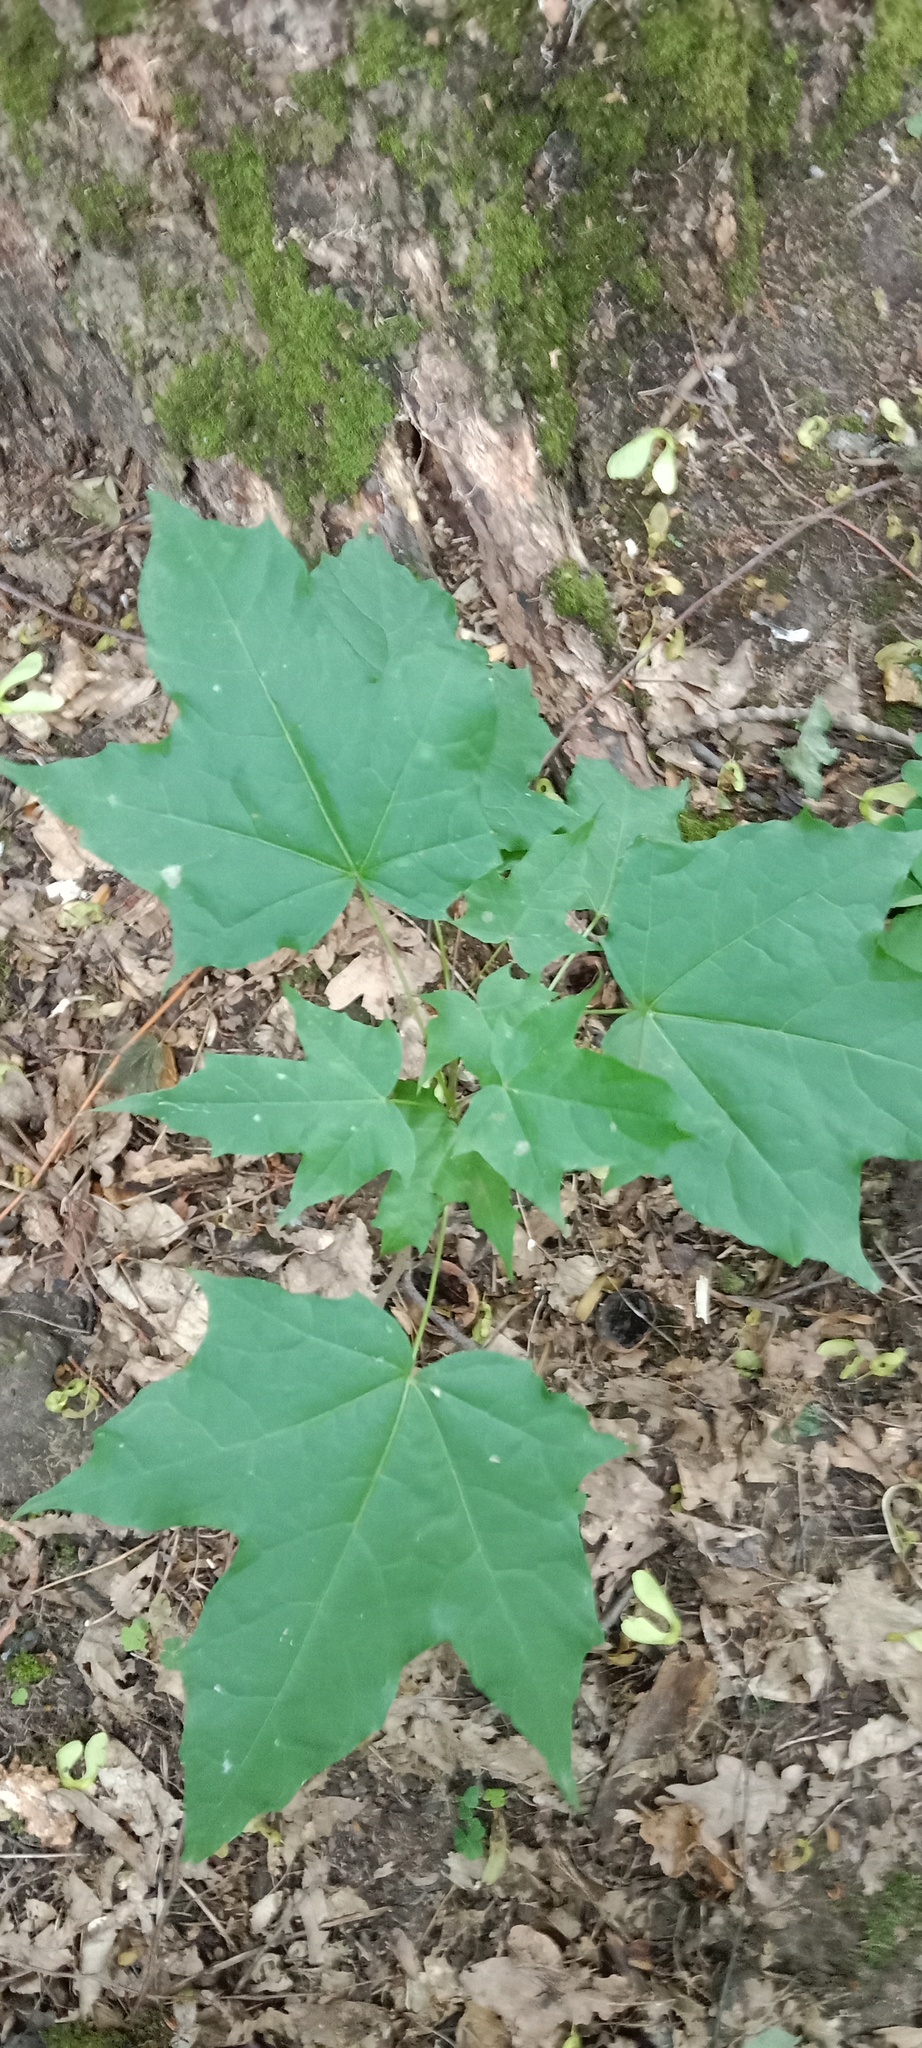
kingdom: Plantae
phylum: Tracheophyta
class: Magnoliopsida
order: Sapindales
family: Sapindaceae
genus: Acer
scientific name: Acer platanoides
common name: Norway maple
